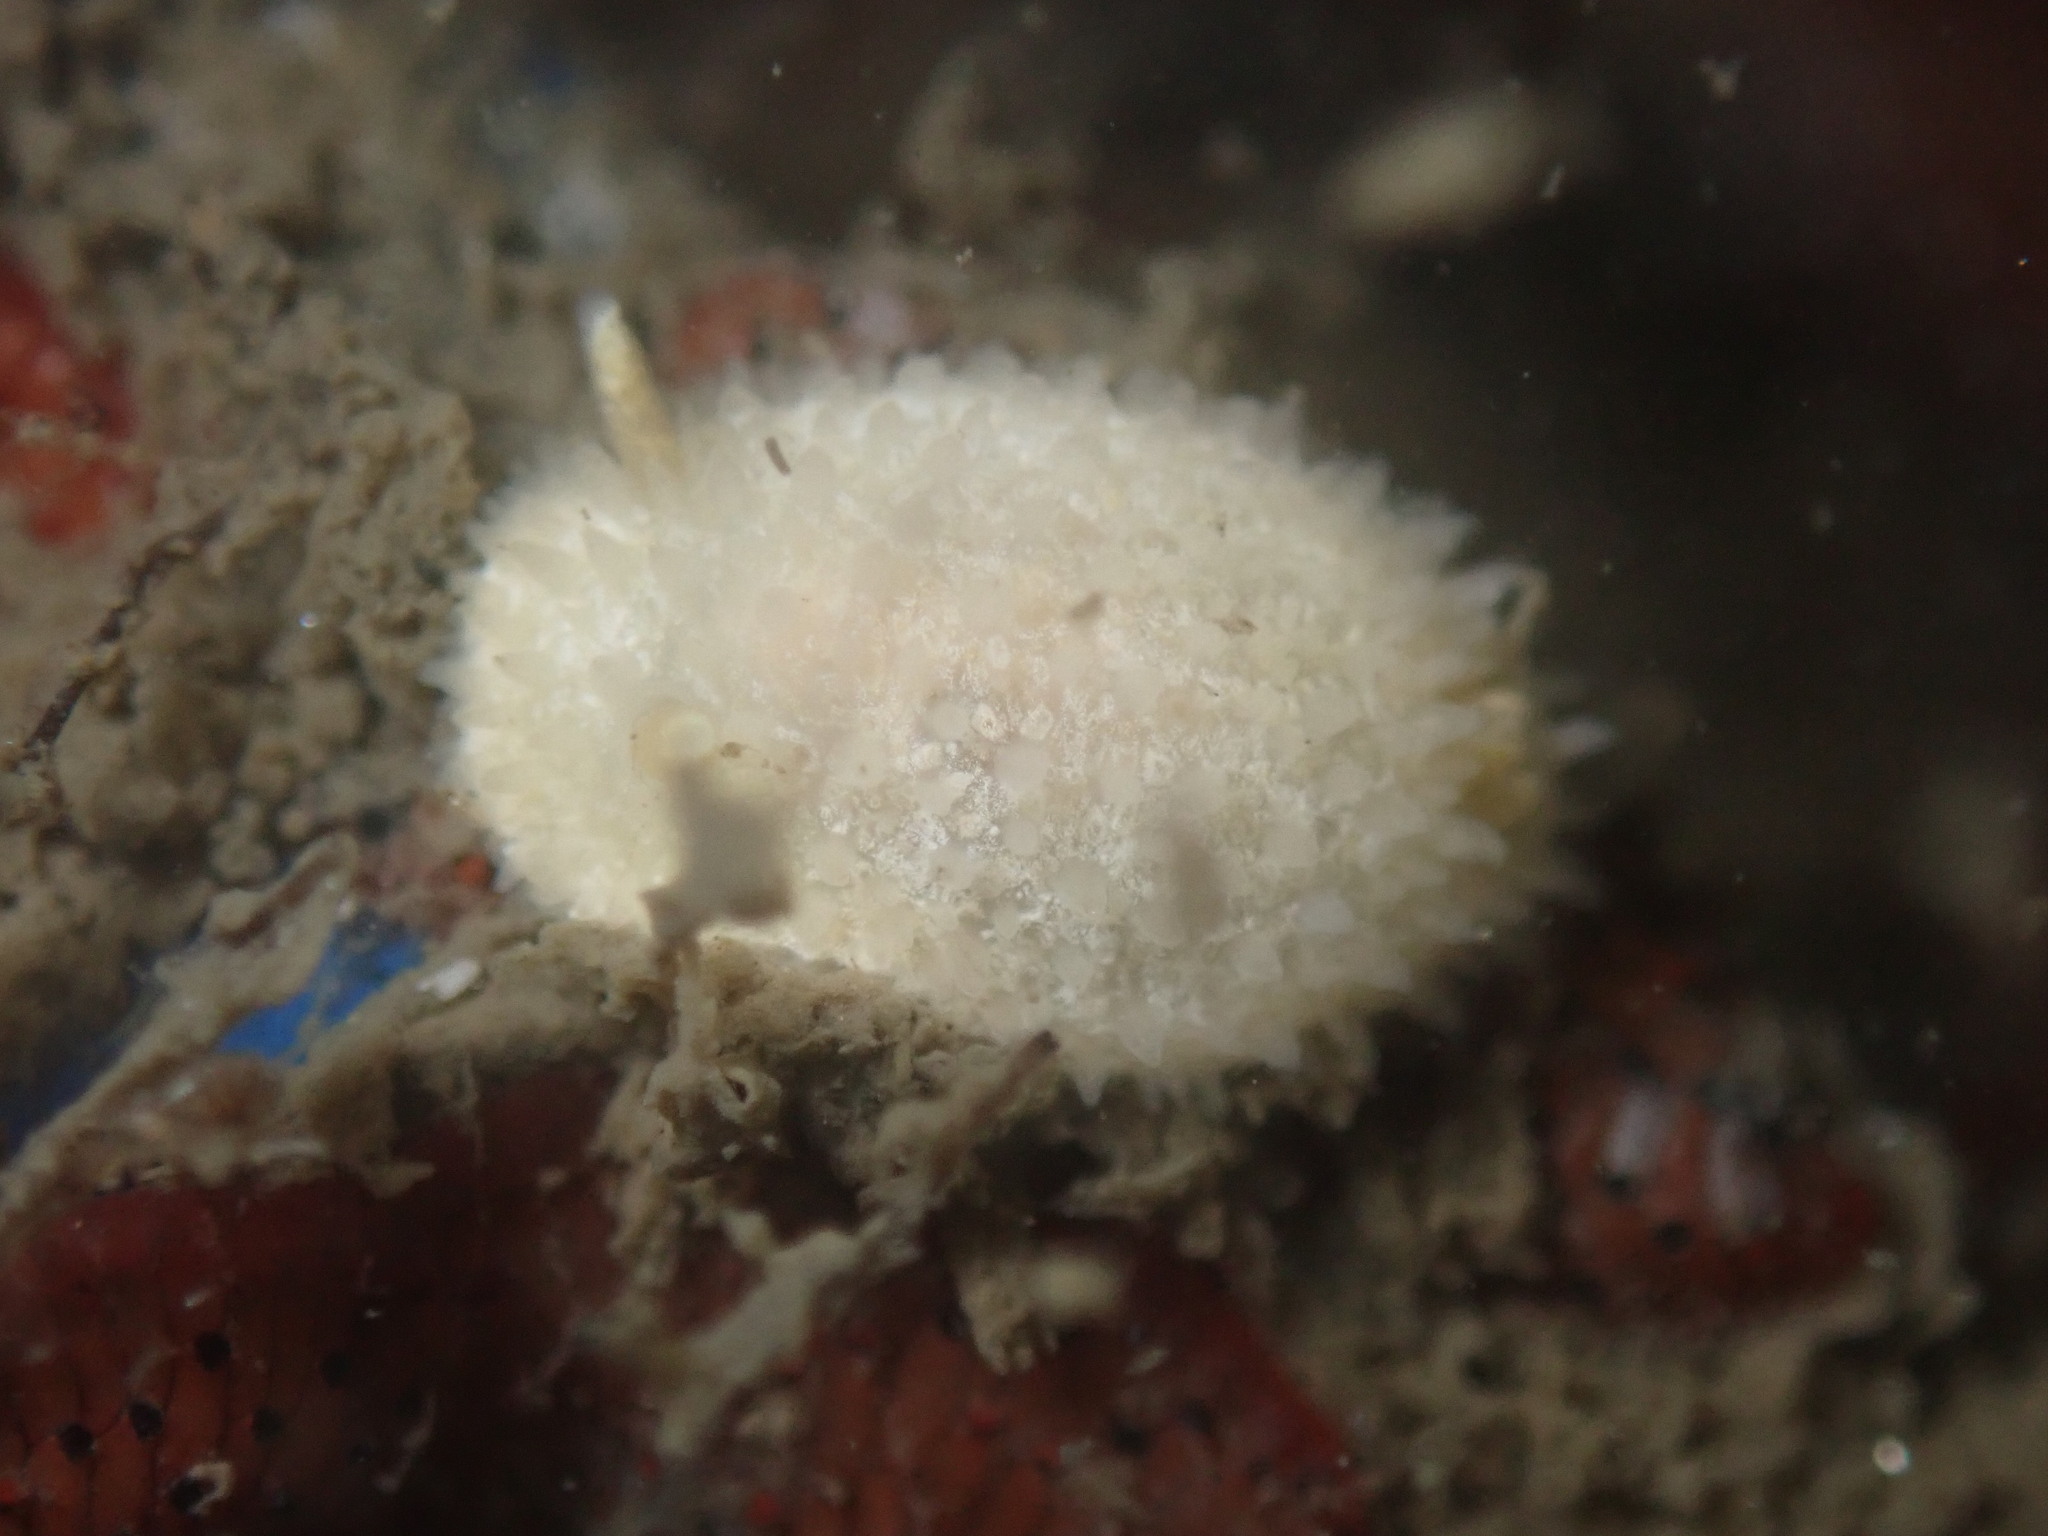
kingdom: Animalia
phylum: Mollusca
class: Gastropoda
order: Nudibranchia
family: Calycidorididae
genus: Diaphorodoris
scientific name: Diaphorodoris lirulatocauda
